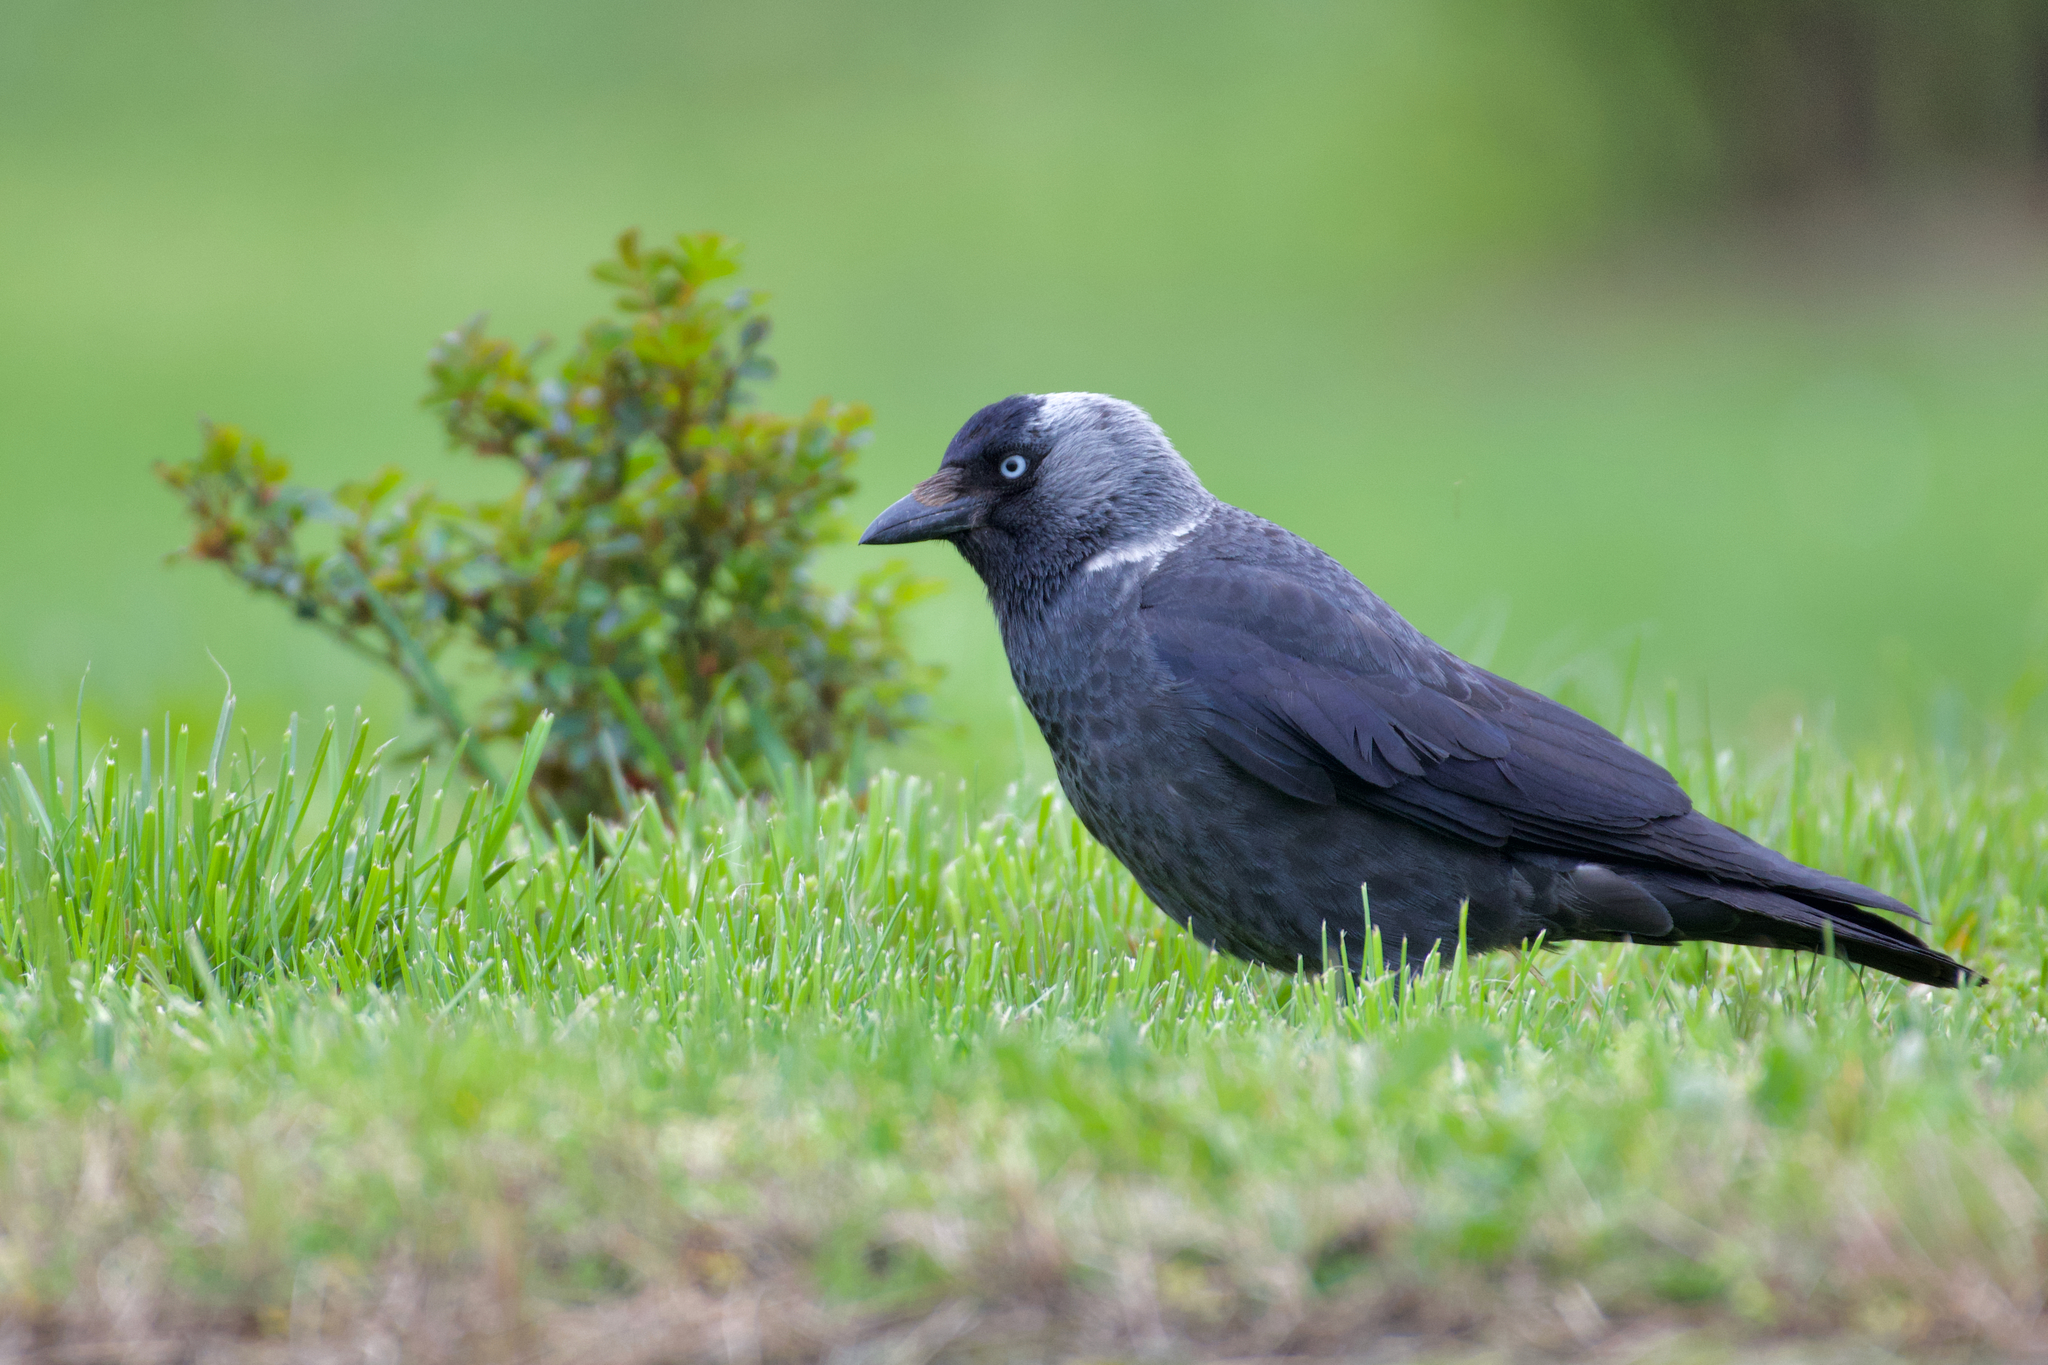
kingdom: Animalia
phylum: Chordata
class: Aves
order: Passeriformes
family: Corvidae
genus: Coloeus
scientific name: Coloeus monedula
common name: Western jackdaw
